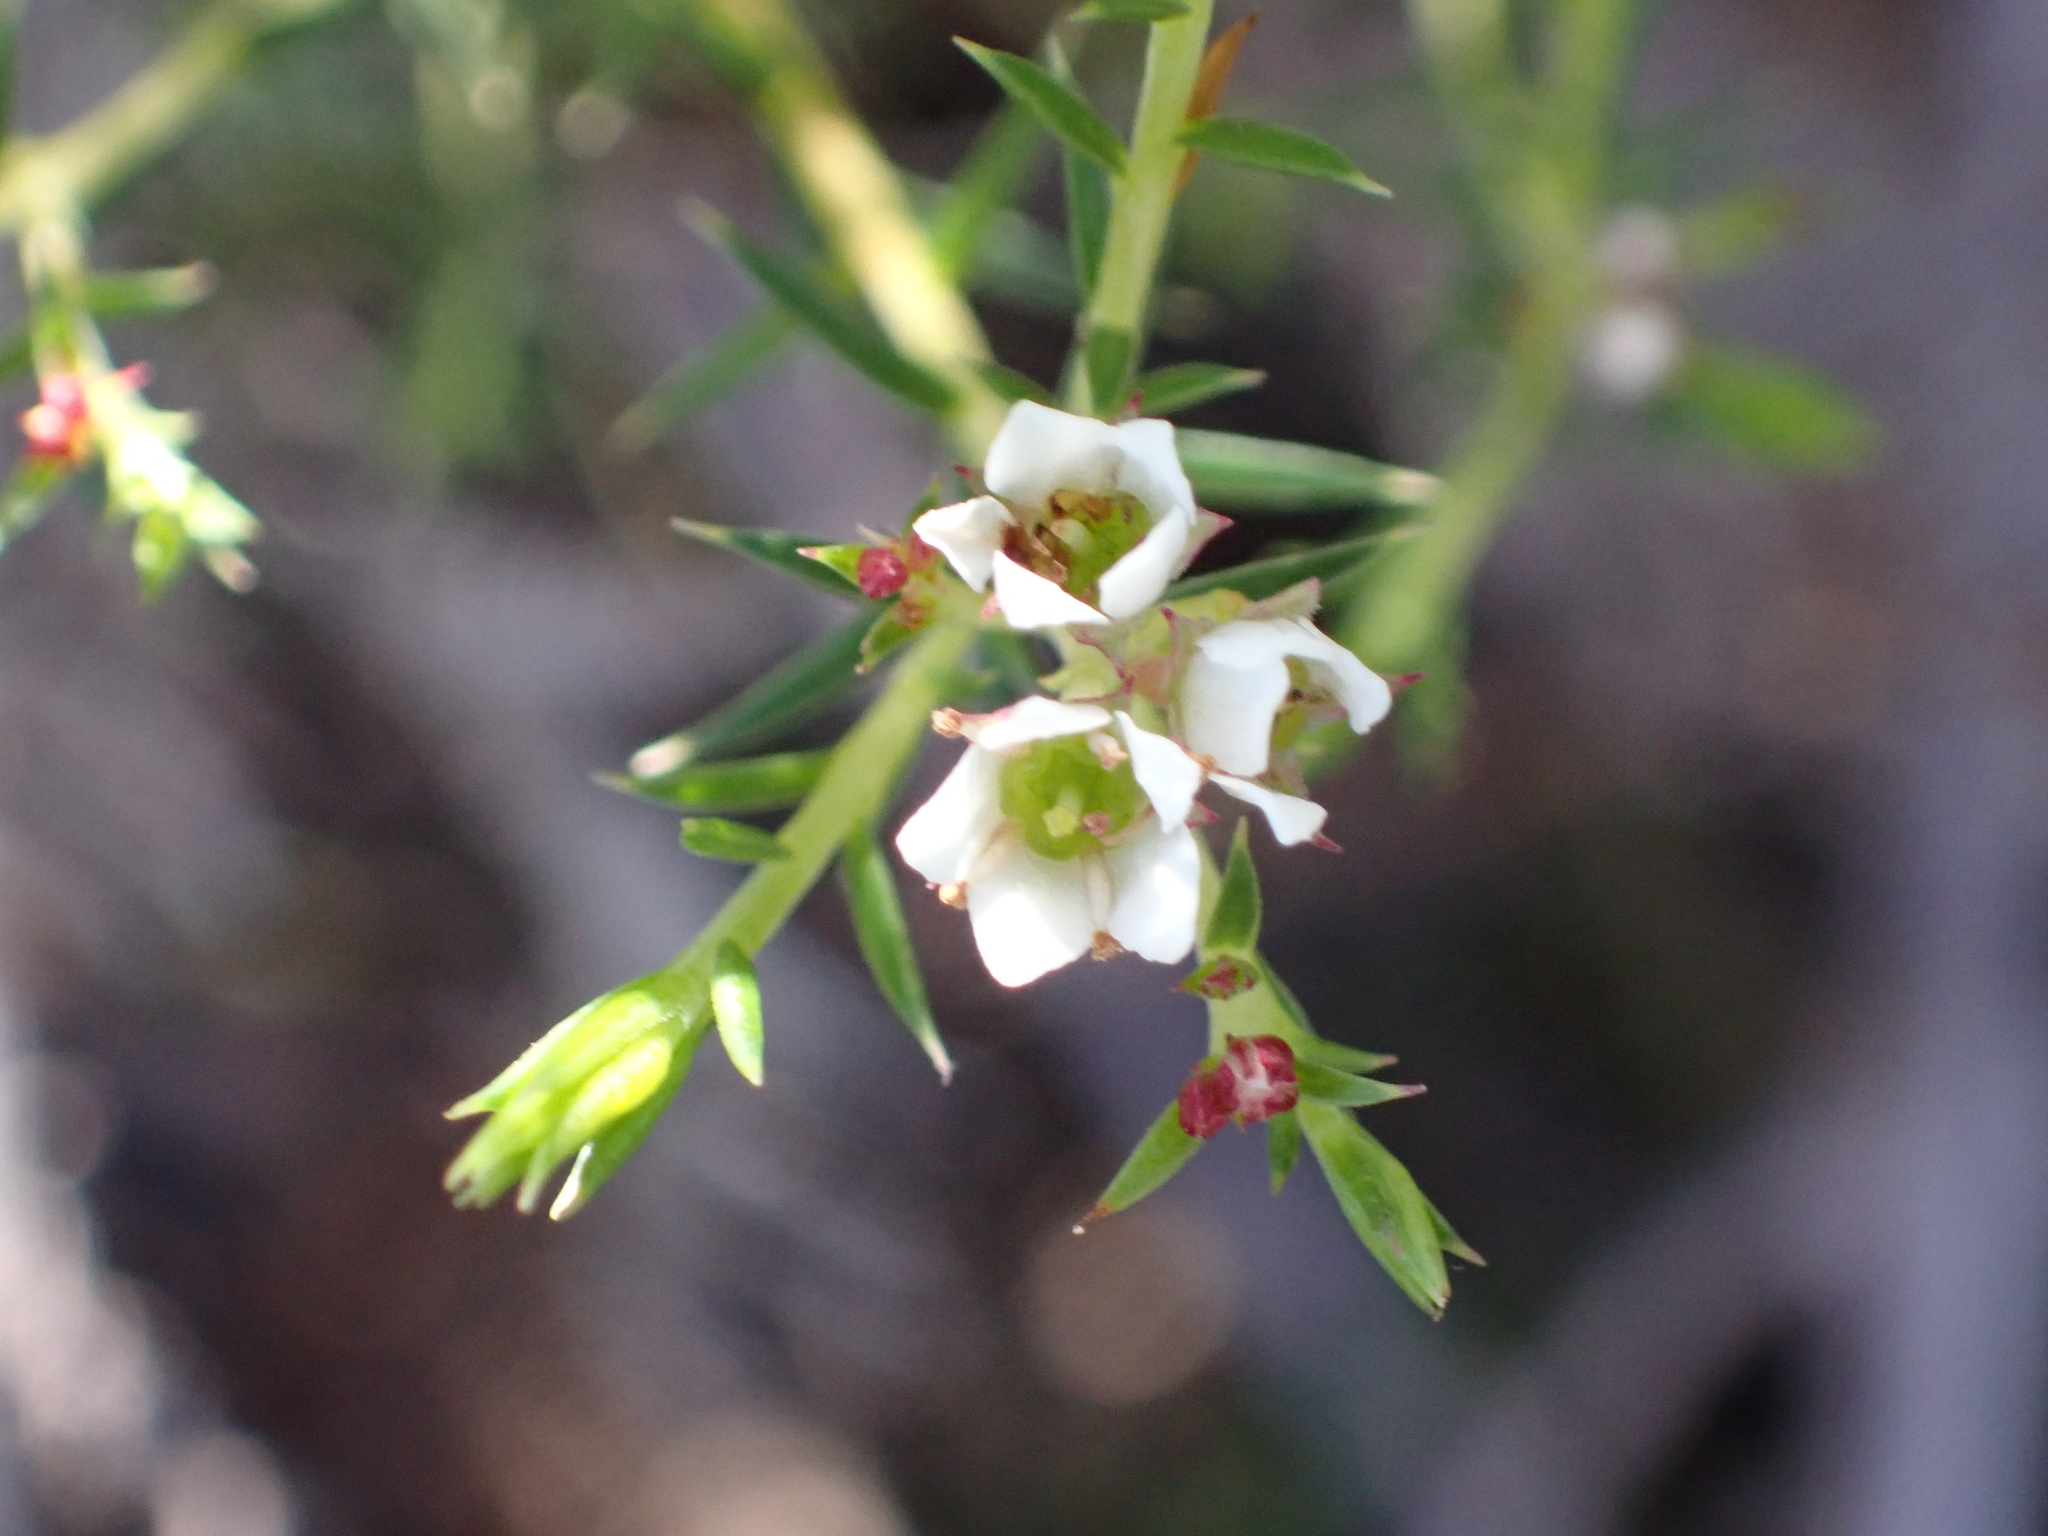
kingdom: Plantae
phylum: Tracheophyta
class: Magnoliopsida
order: Sapindales
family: Rutaceae
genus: Diosma
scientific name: Diosma hirsuta
